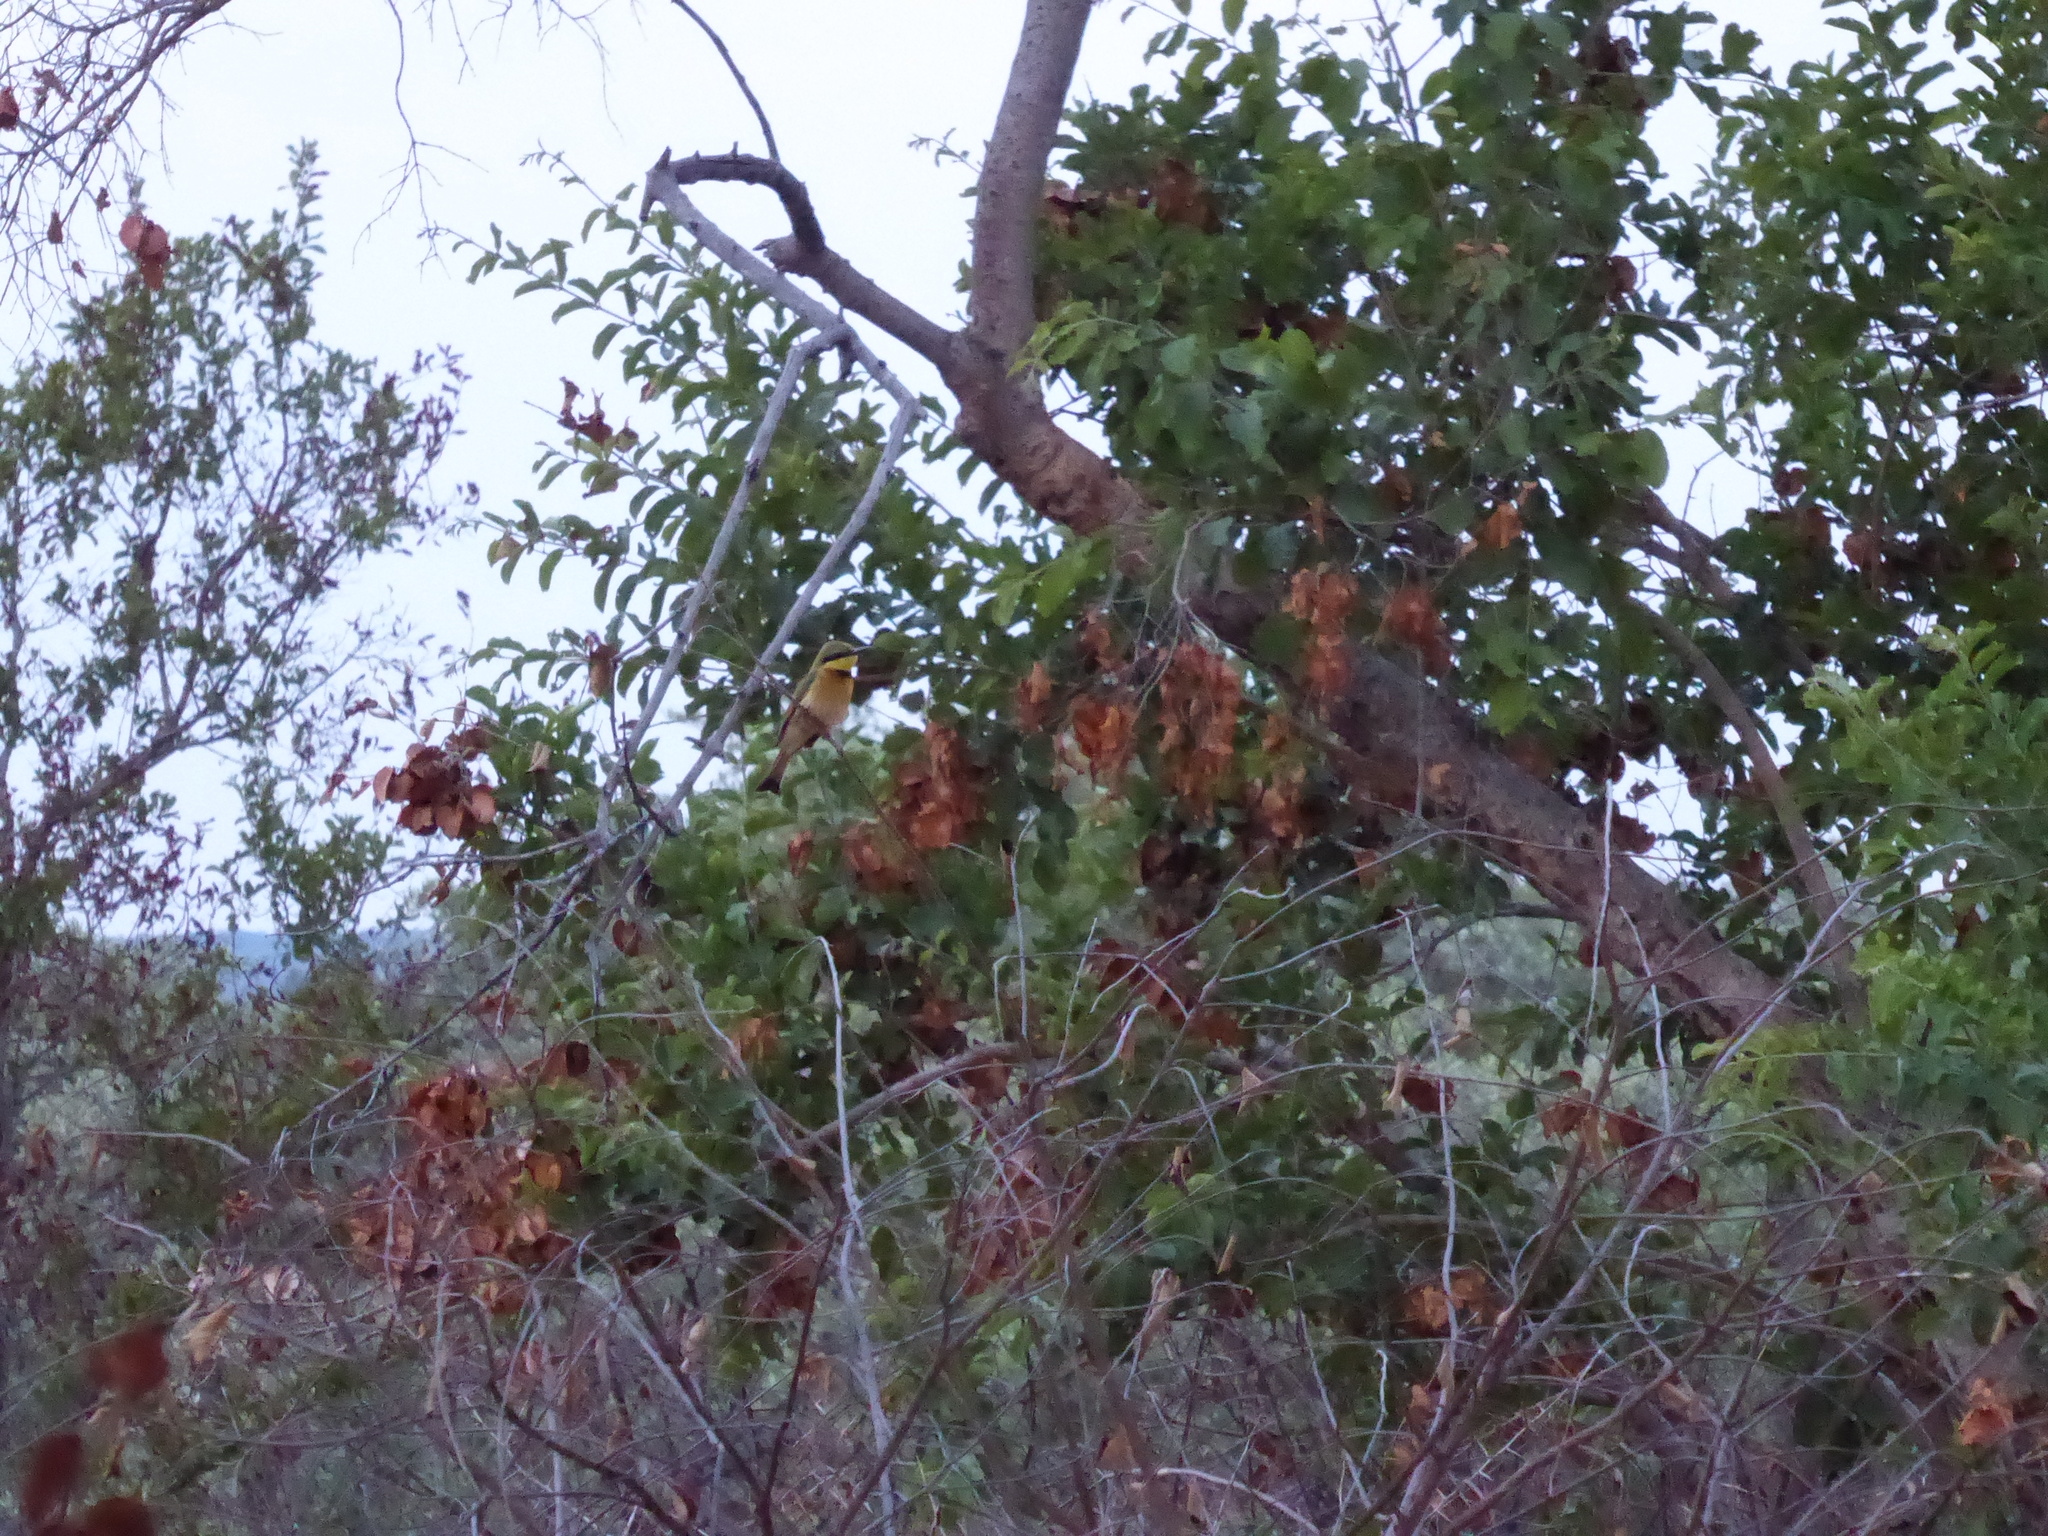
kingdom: Animalia
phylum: Chordata
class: Aves
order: Coraciiformes
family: Meropidae
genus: Merops
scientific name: Merops pusillus
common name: Little bee-eater
